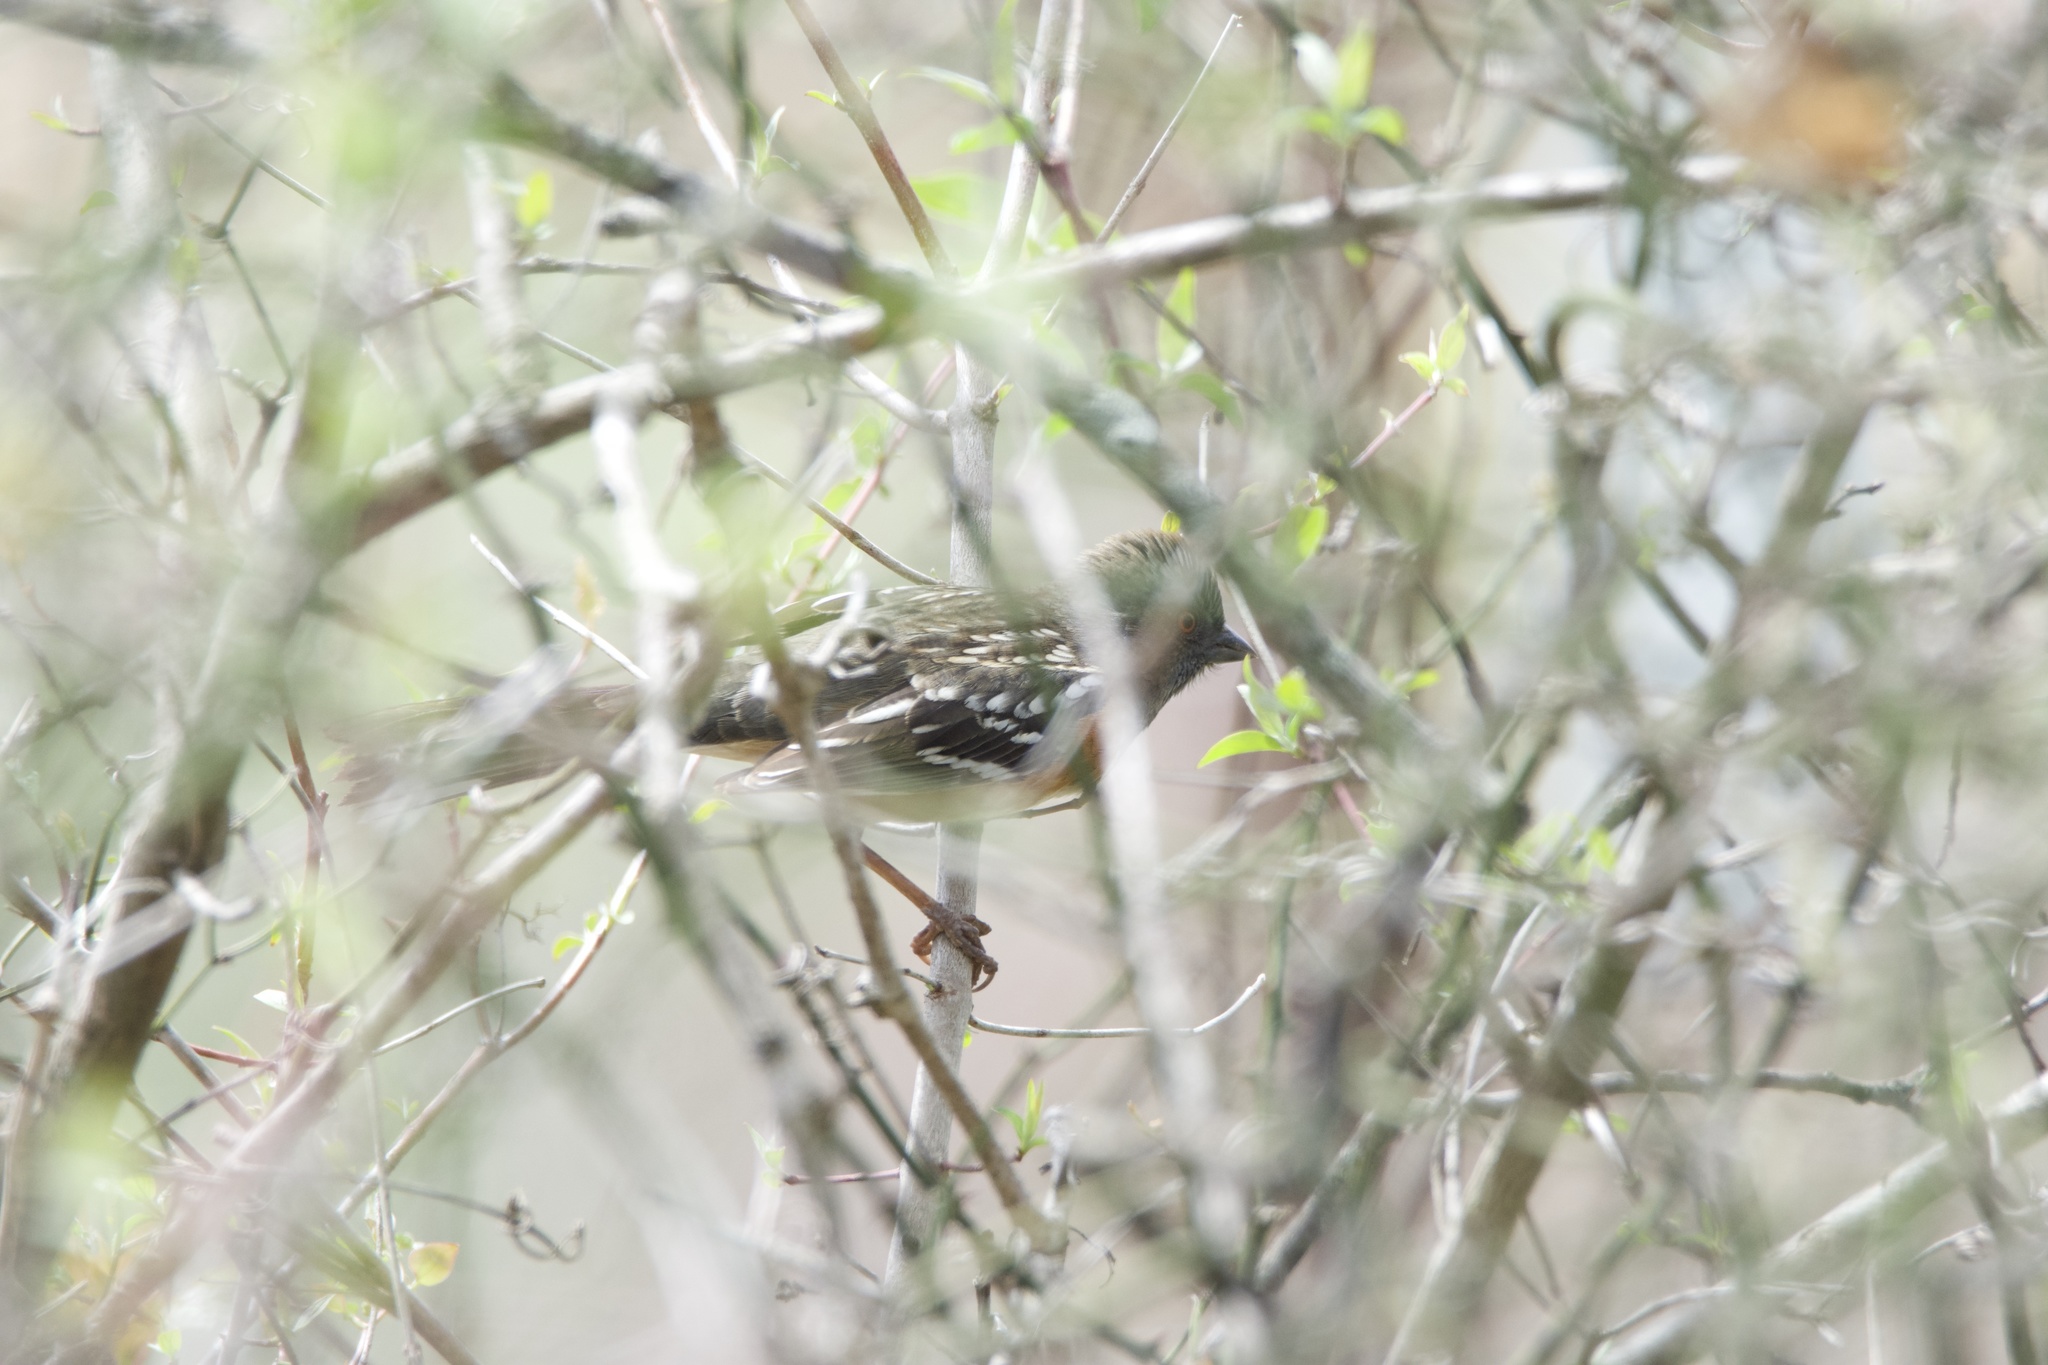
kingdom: Animalia
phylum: Chordata
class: Aves
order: Passeriformes
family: Passerellidae
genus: Pipilo
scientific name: Pipilo maculatus
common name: Spotted towhee
